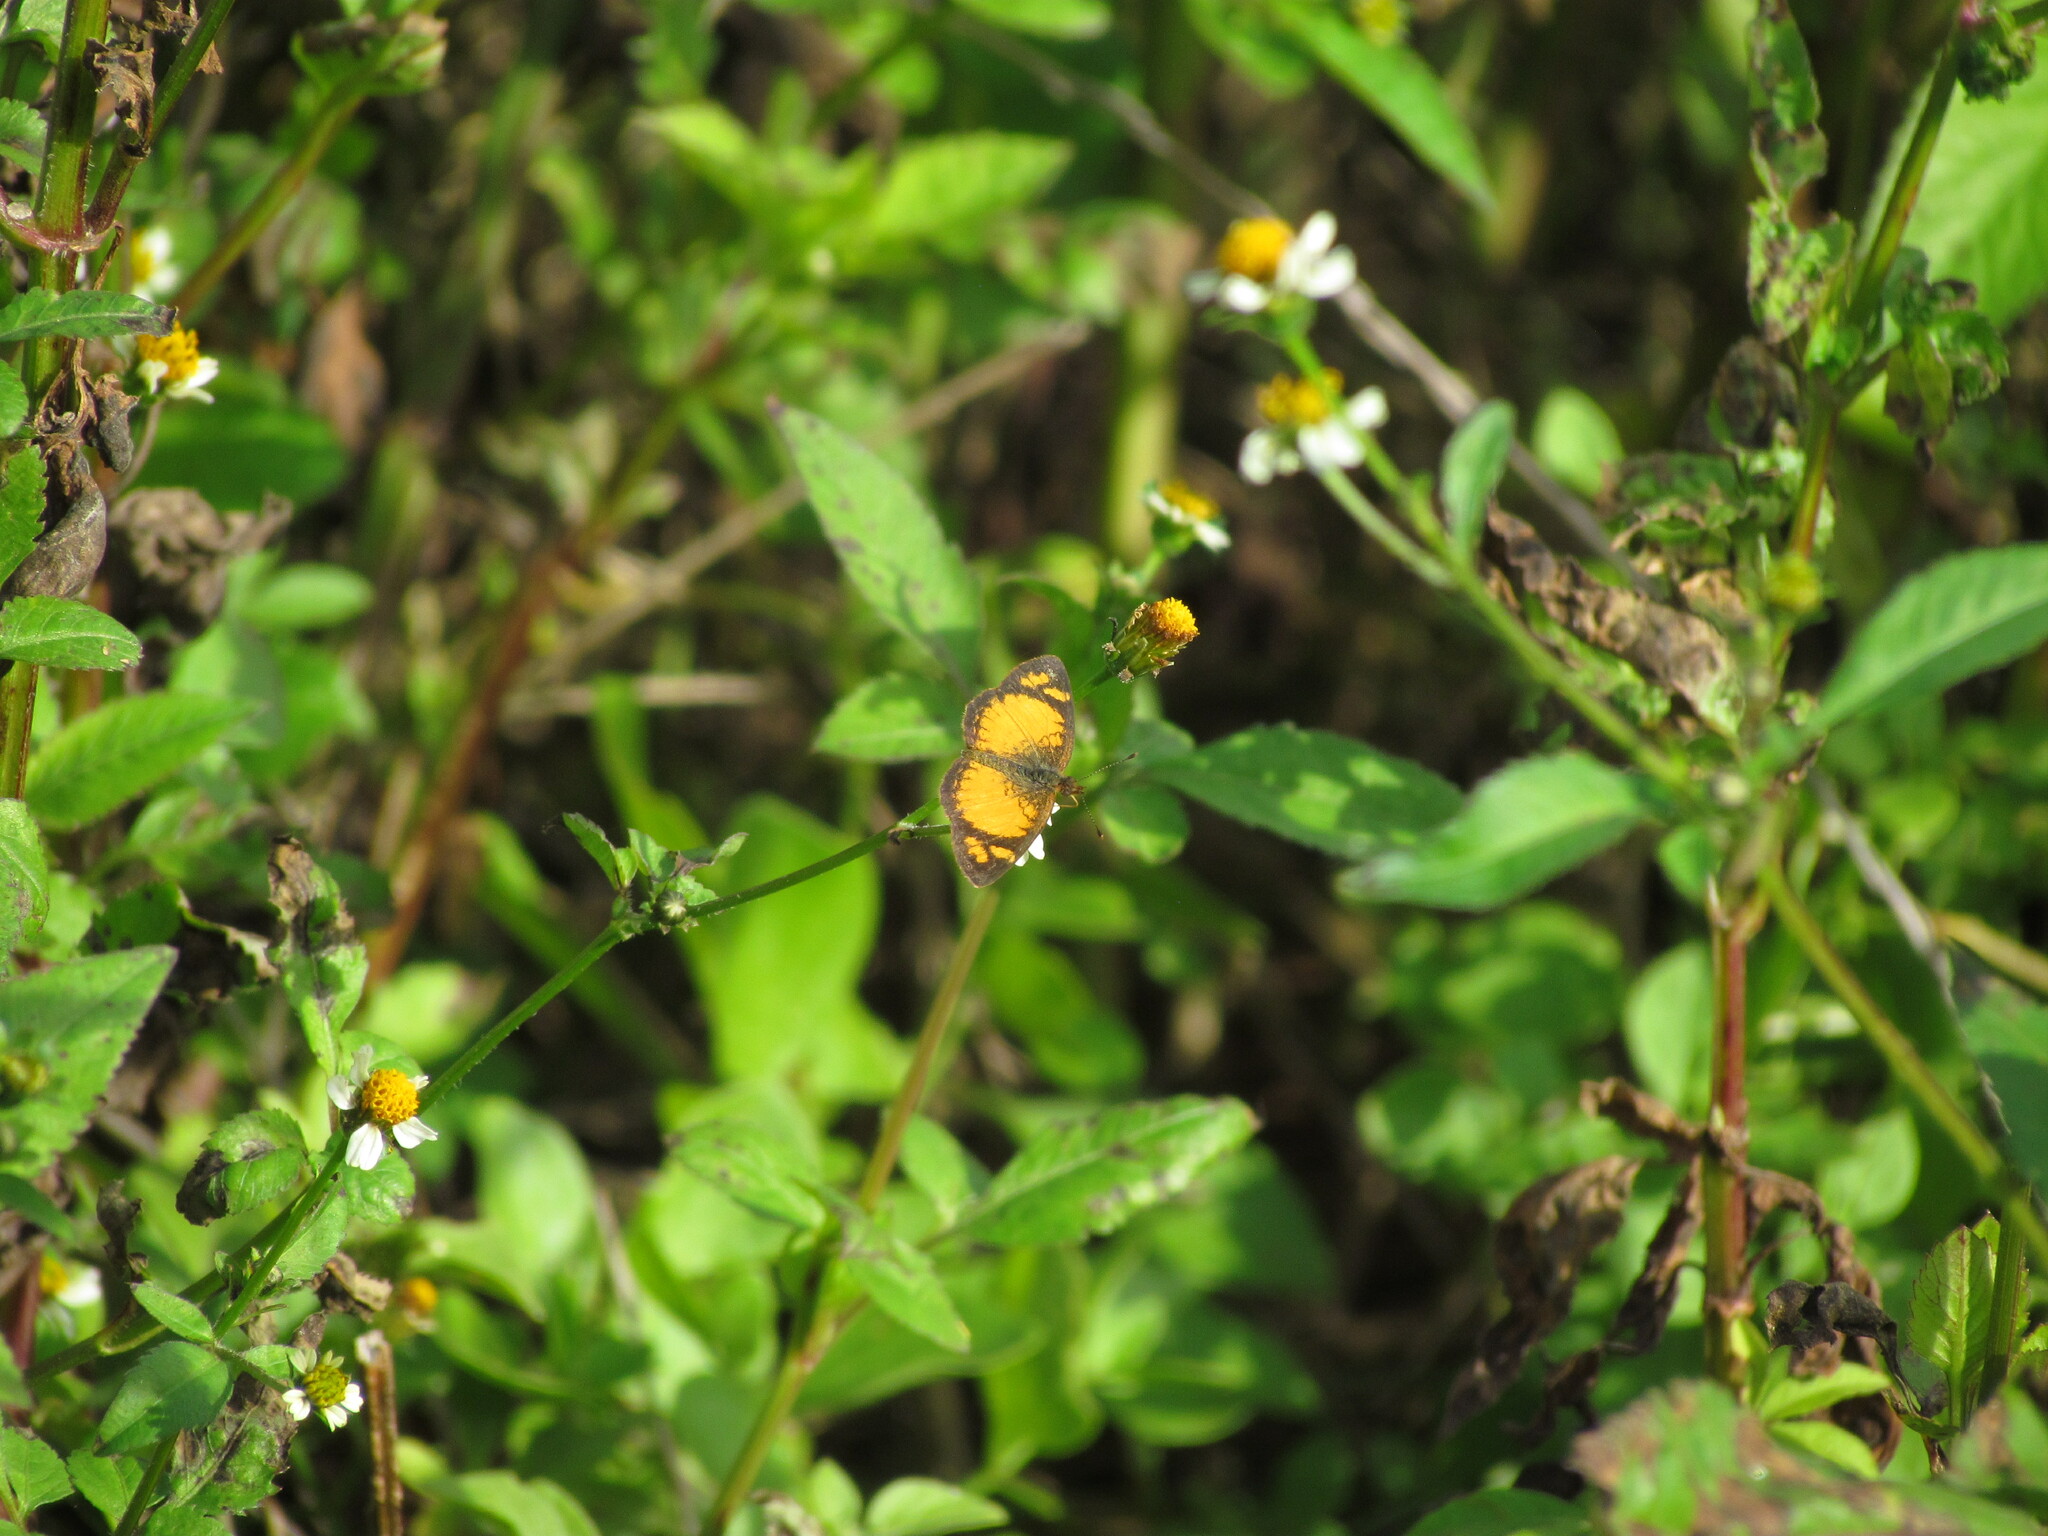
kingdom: Animalia
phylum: Arthropoda
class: Insecta
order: Lepidoptera
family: Nymphalidae
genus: Tegosa
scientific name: Tegosa claudina
